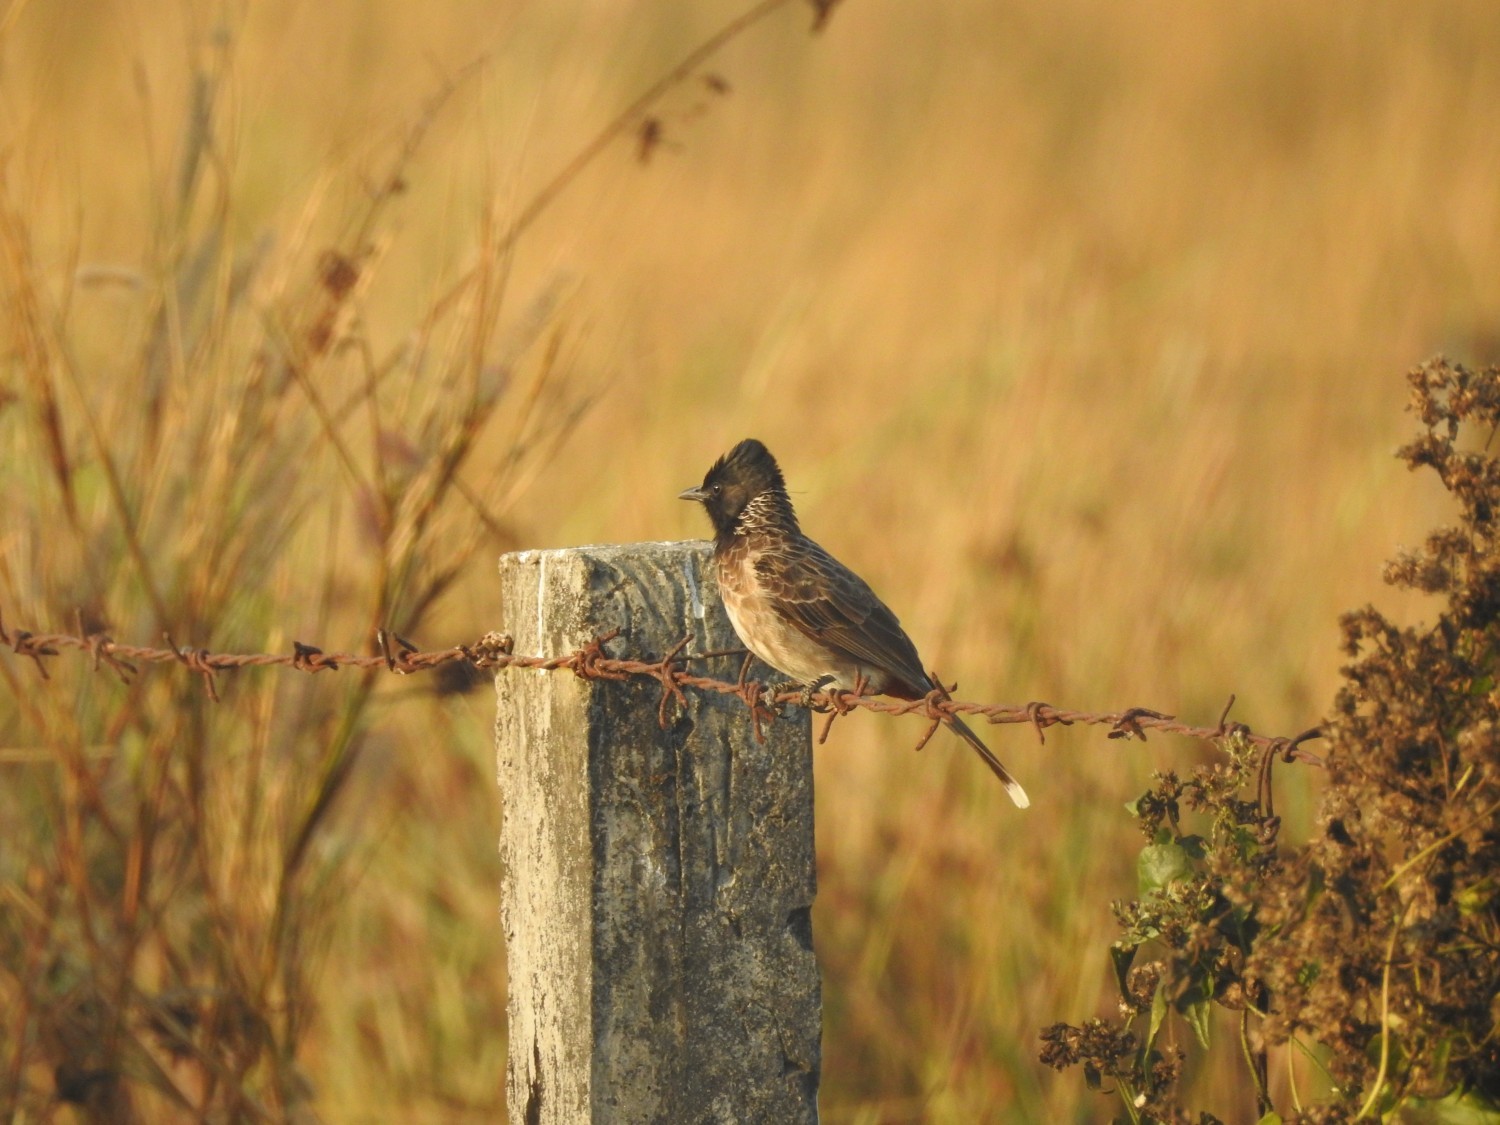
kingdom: Animalia
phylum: Chordata
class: Aves
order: Passeriformes
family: Pycnonotidae
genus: Pycnonotus
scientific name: Pycnonotus cafer
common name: Red-vented bulbul
